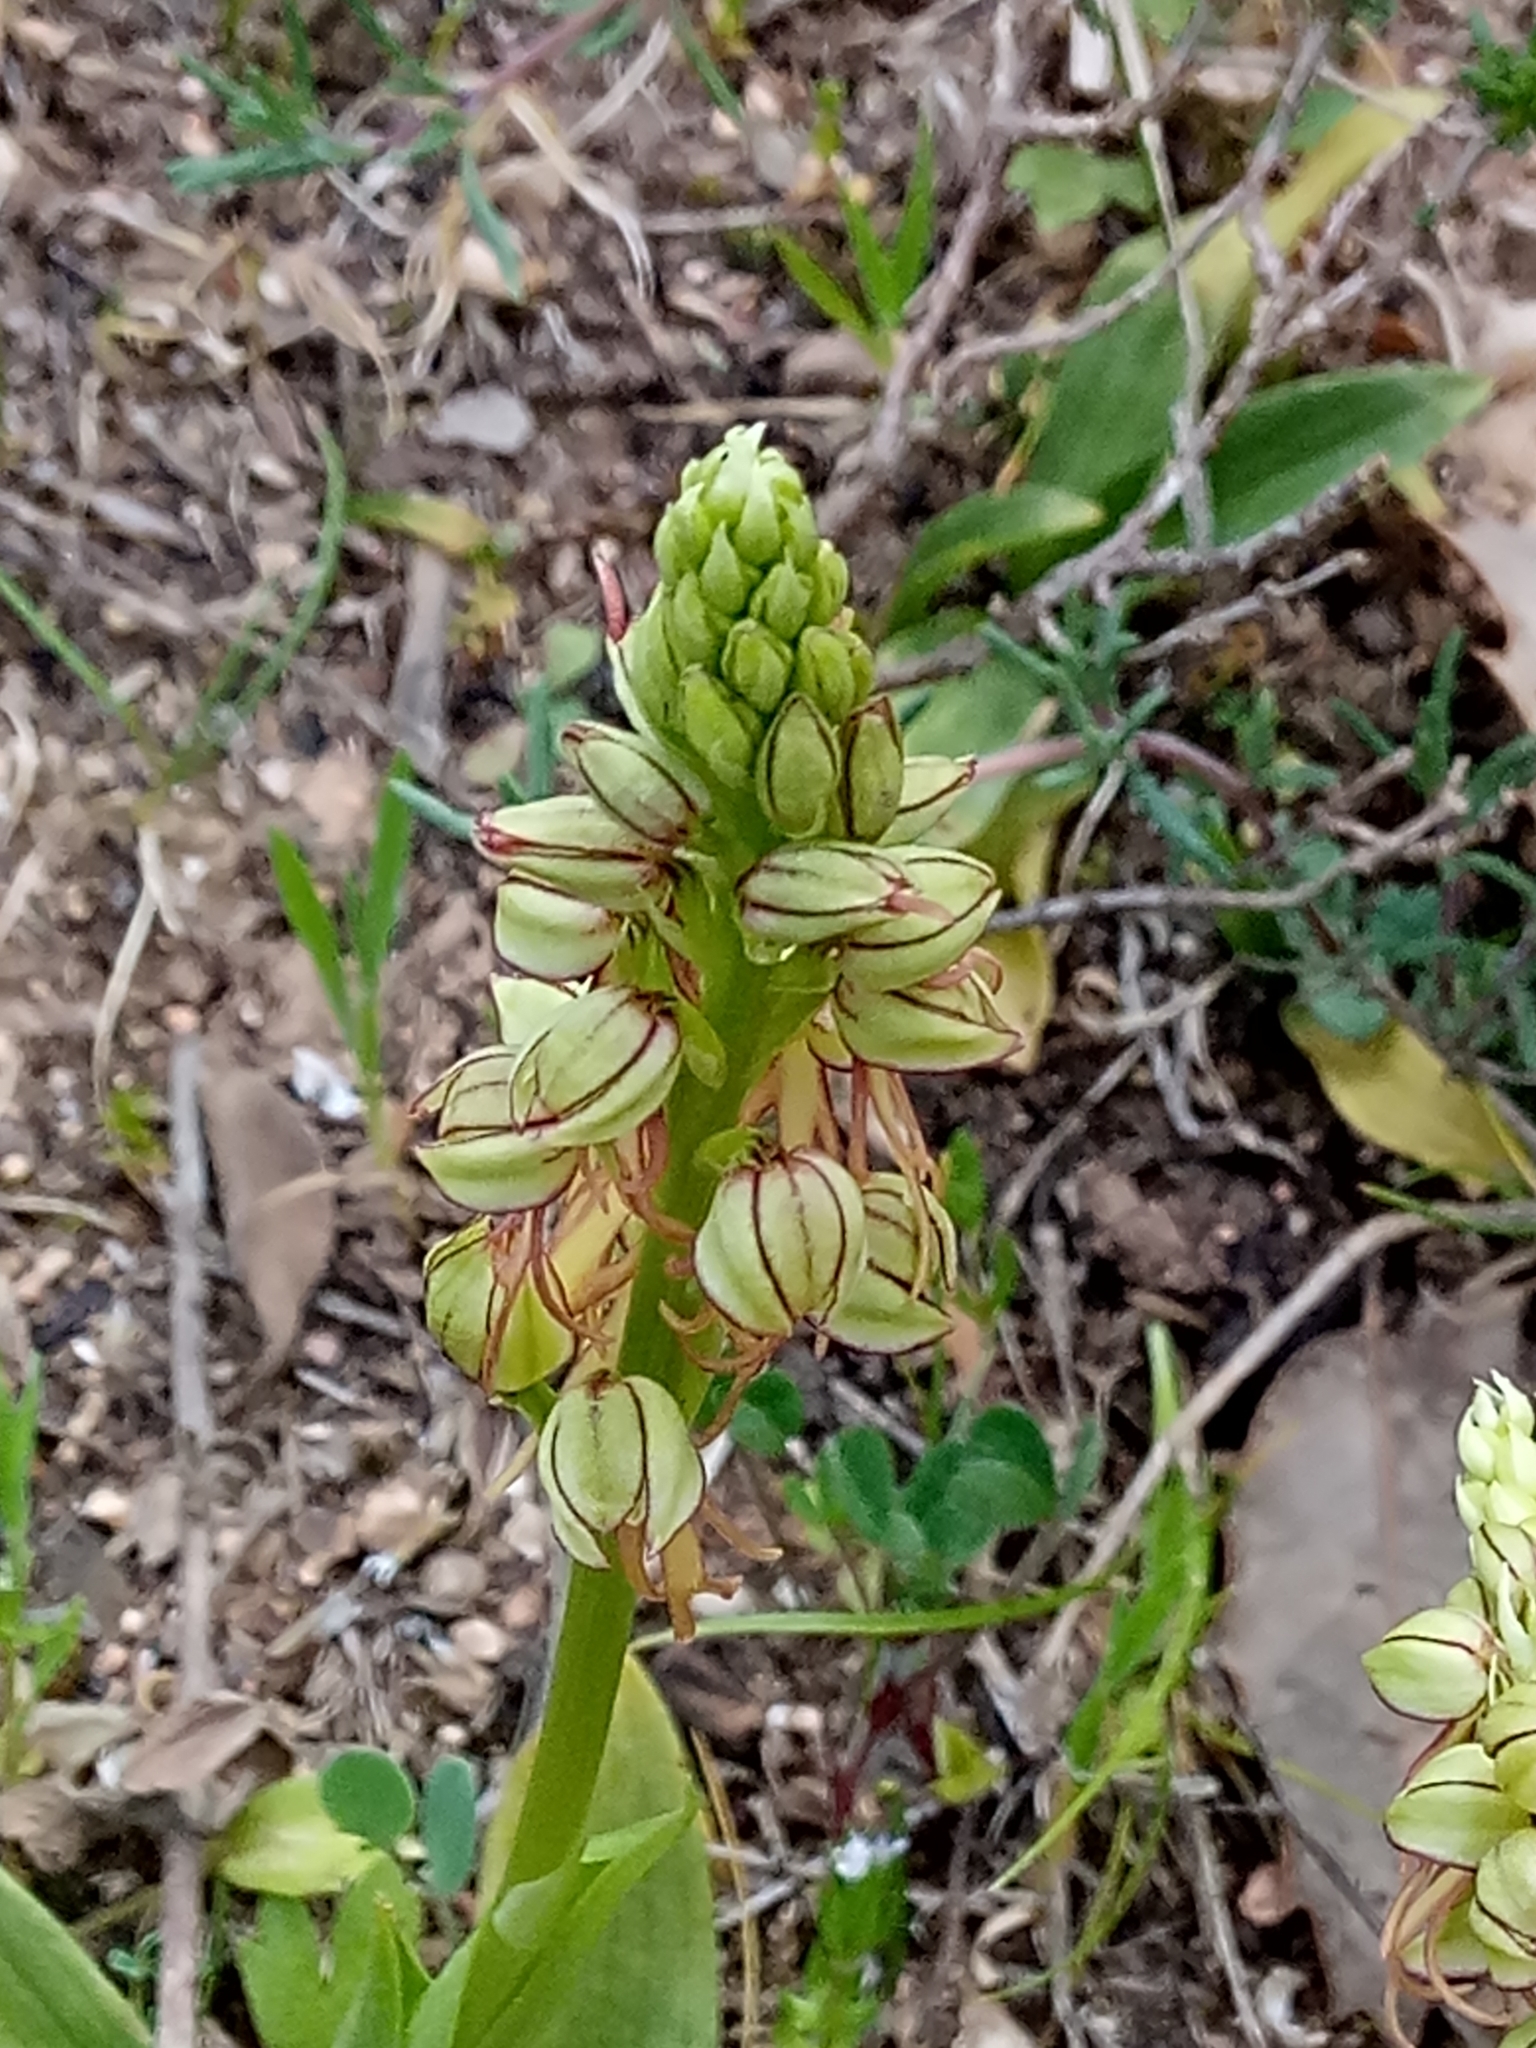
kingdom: Plantae
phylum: Tracheophyta
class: Liliopsida
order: Asparagales
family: Orchidaceae
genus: Orchis
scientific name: Orchis anthropophora
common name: Man orchid
